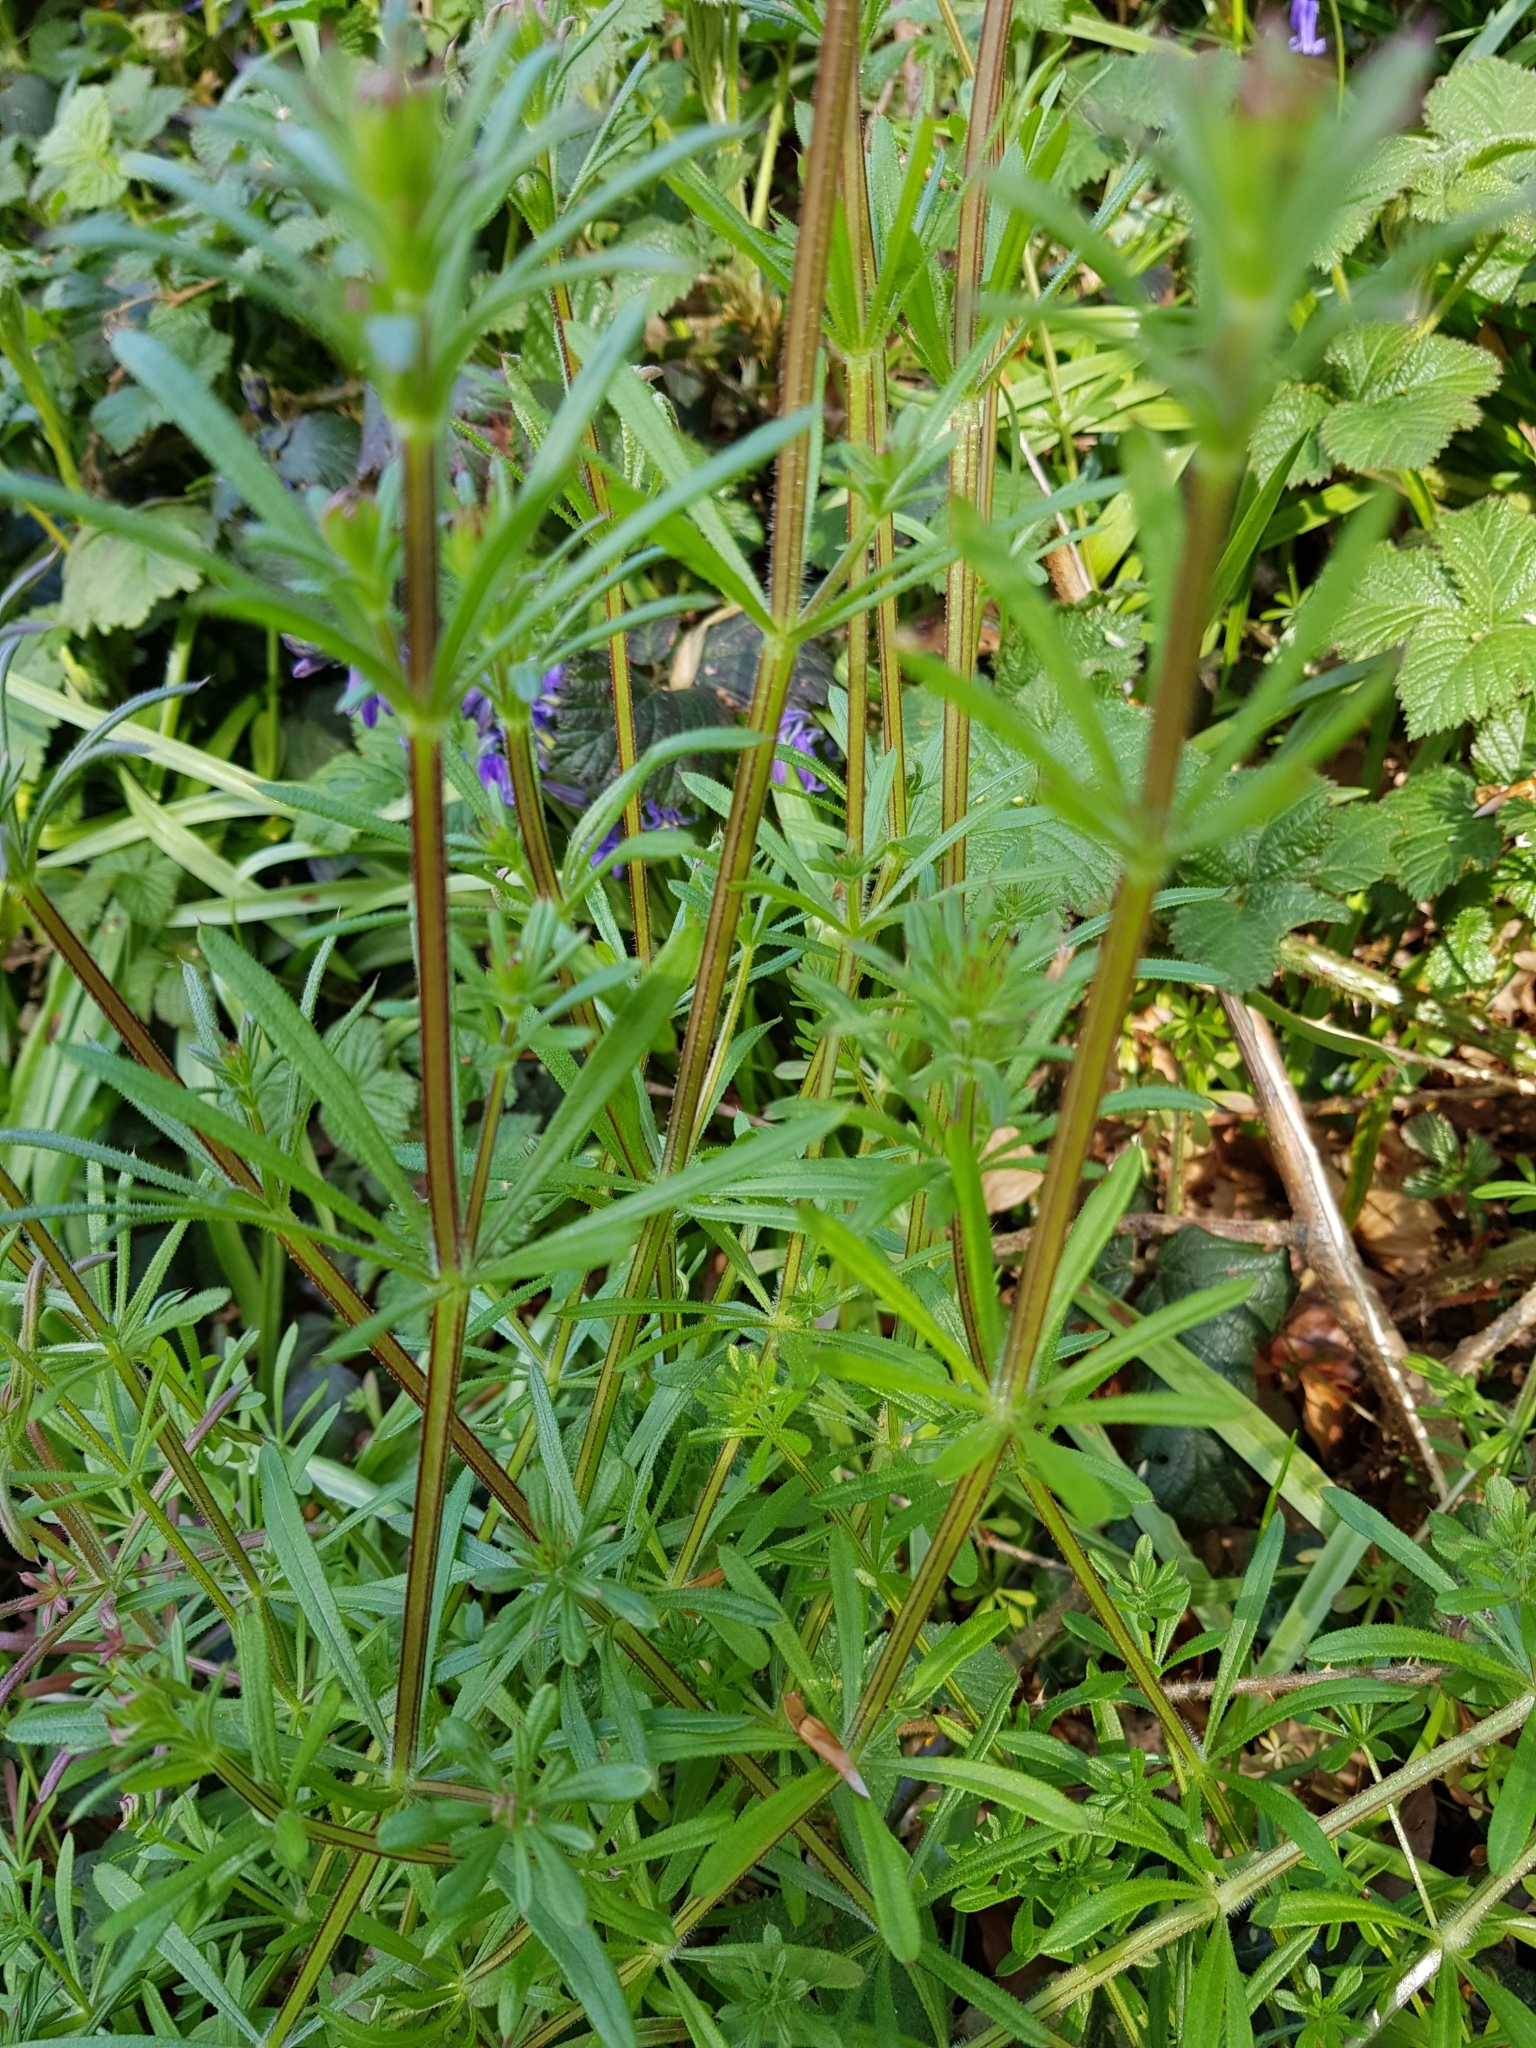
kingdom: Plantae
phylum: Tracheophyta
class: Magnoliopsida
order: Gentianales
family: Rubiaceae
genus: Galium
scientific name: Galium aparine
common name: Cleavers
